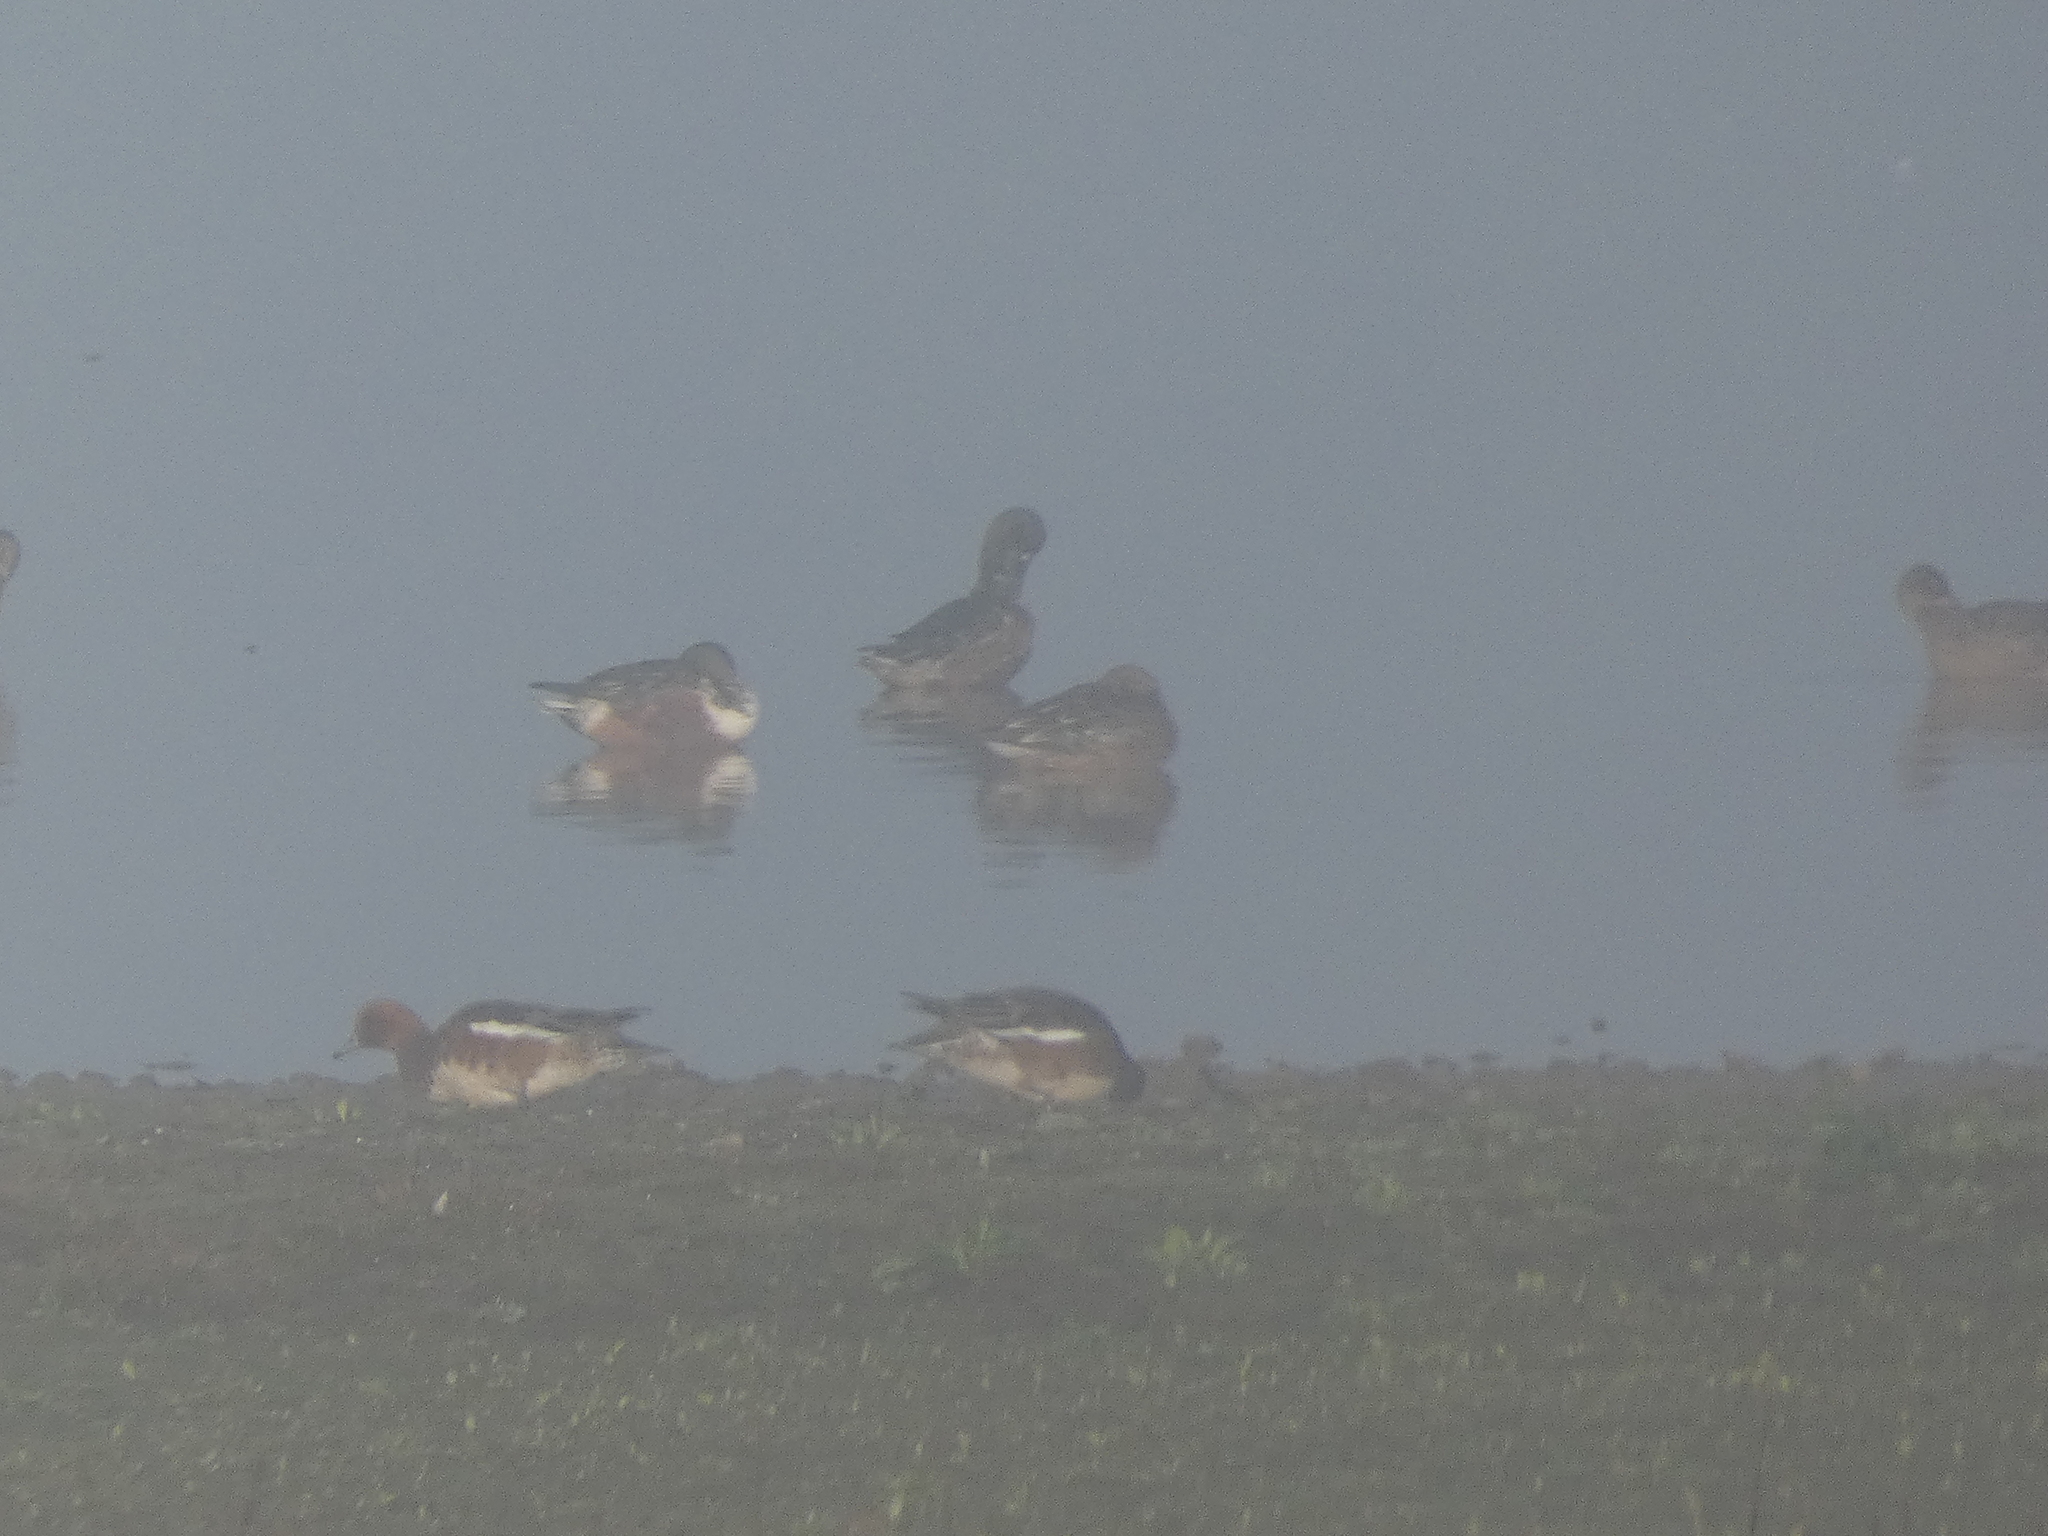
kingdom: Animalia
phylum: Chordata
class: Aves
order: Anseriformes
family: Anatidae
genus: Mareca
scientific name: Mareca penelope
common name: Eurasian wigeon
